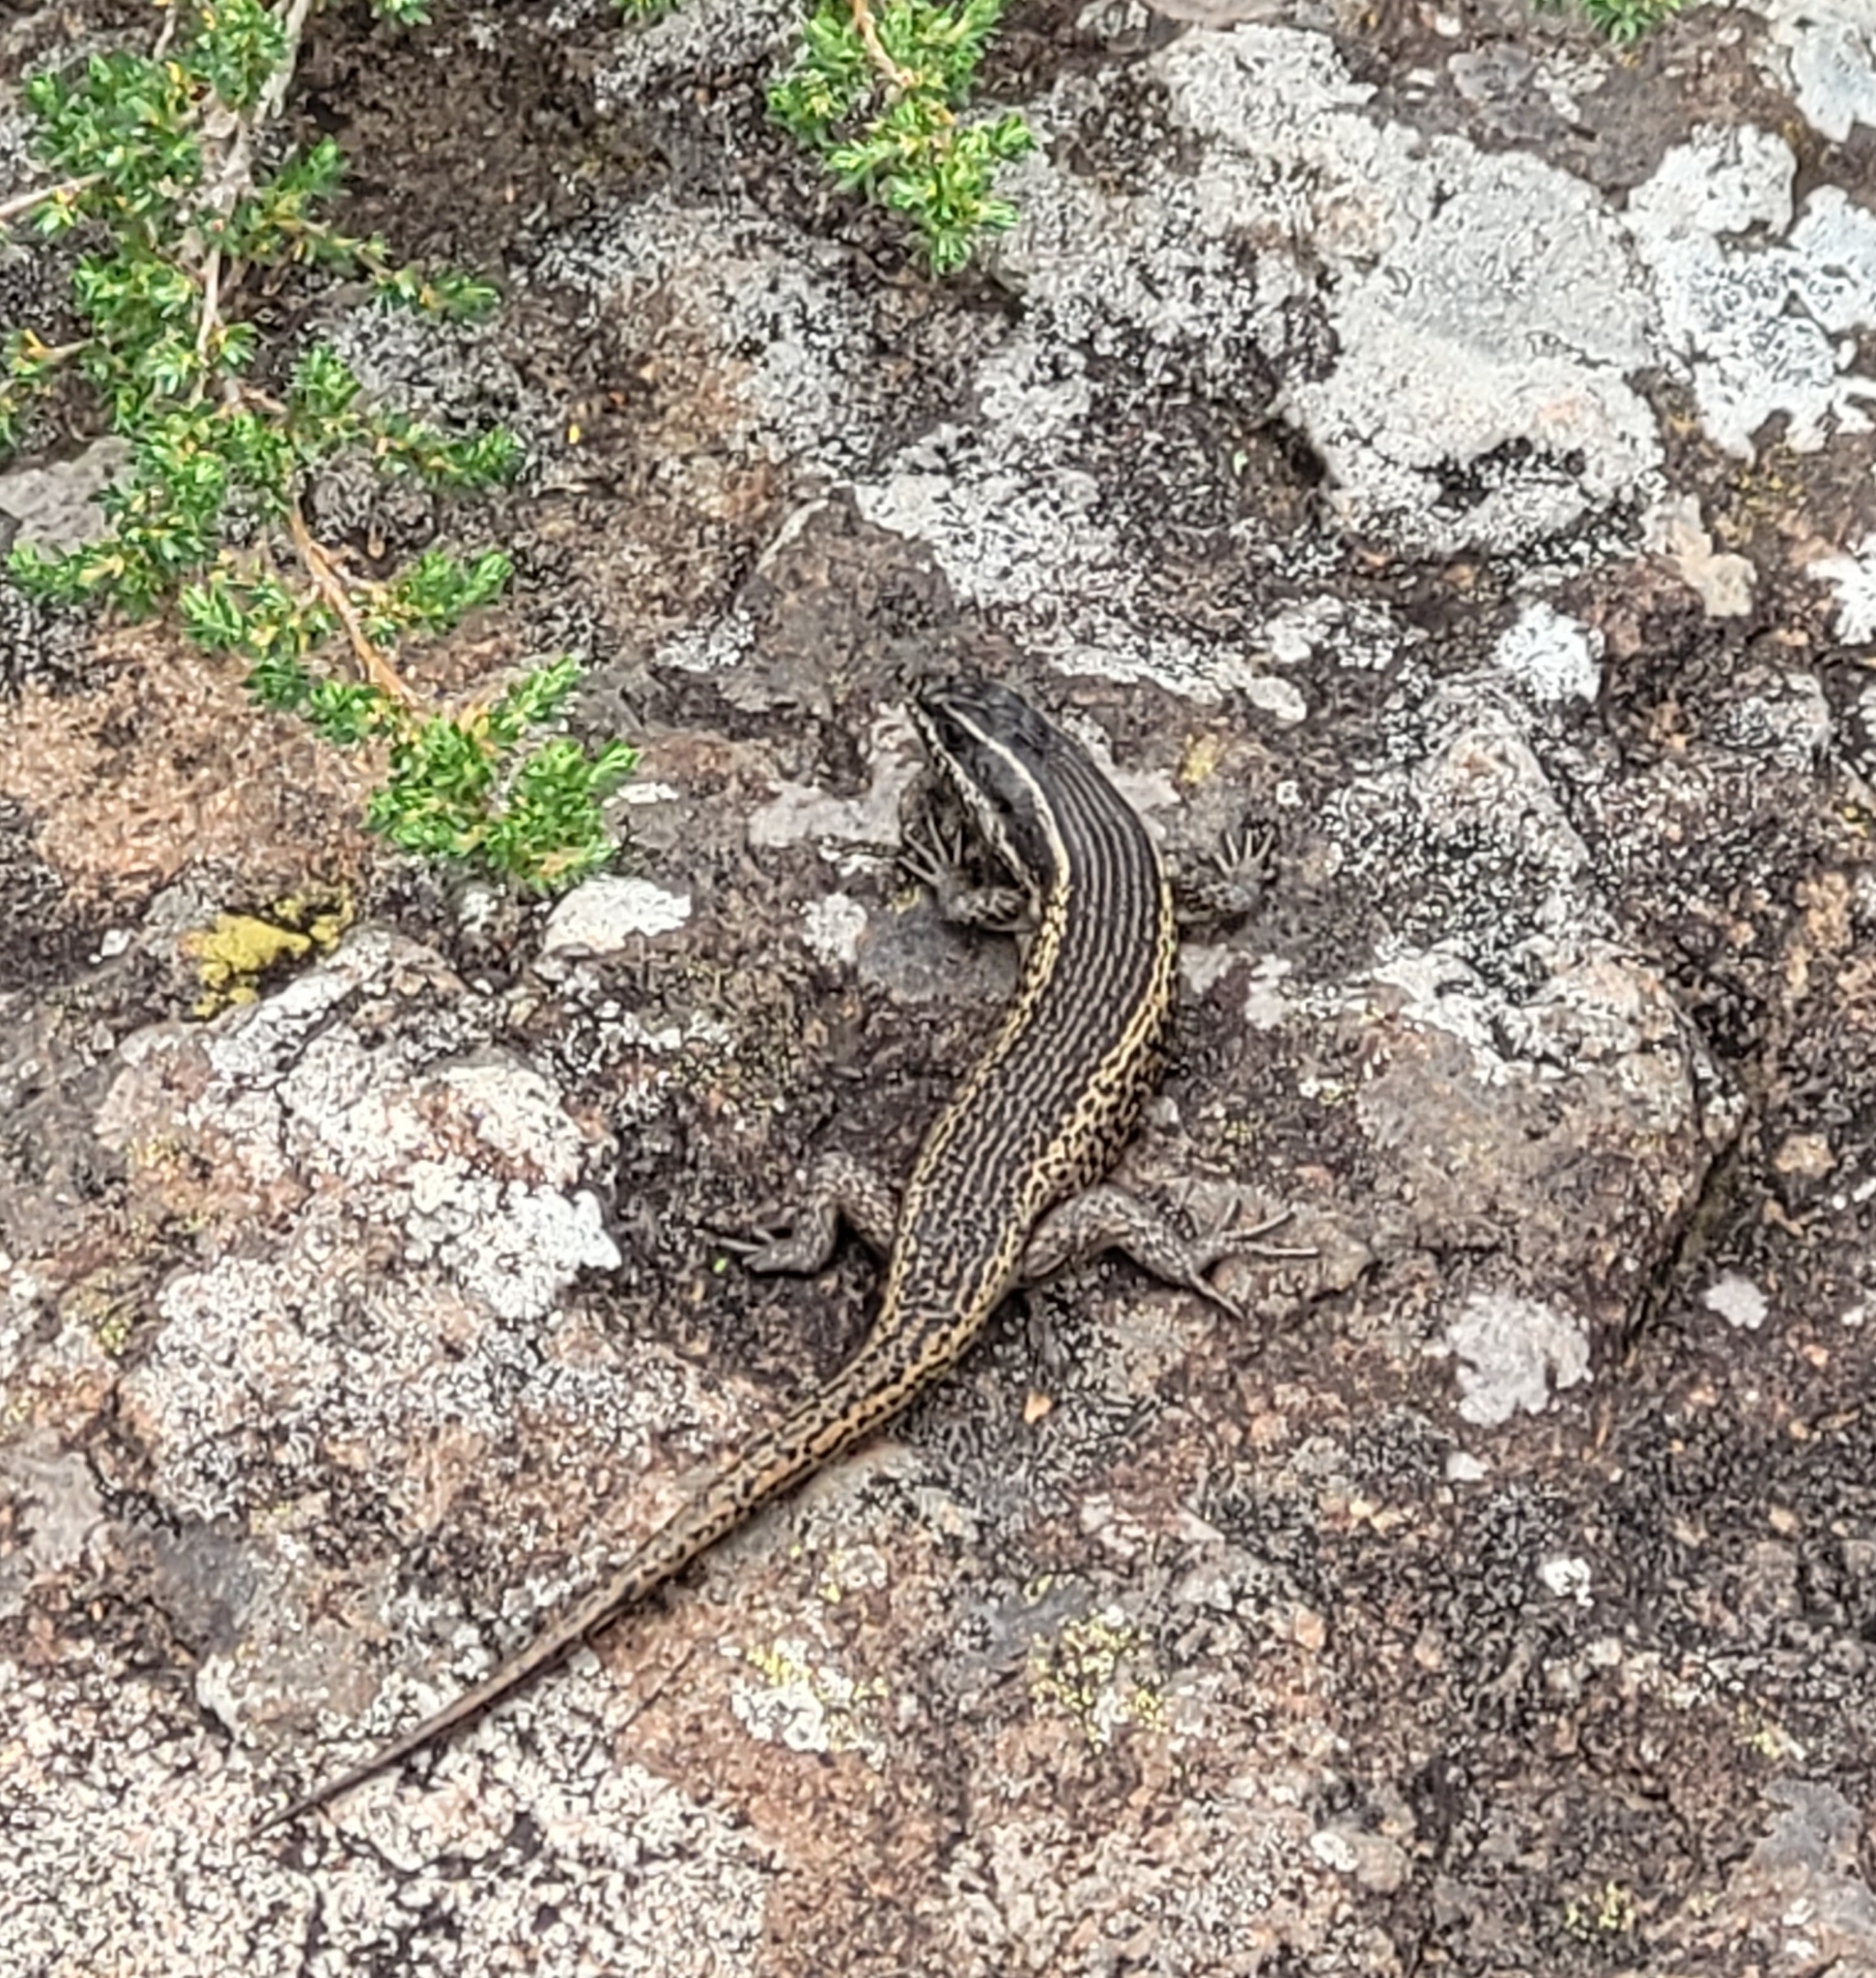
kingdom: Animalia
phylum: Chordata
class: Squamata
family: Scincidae
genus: Trachylepis
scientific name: Trachylepis punctatissima
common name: Montane speckled skink
